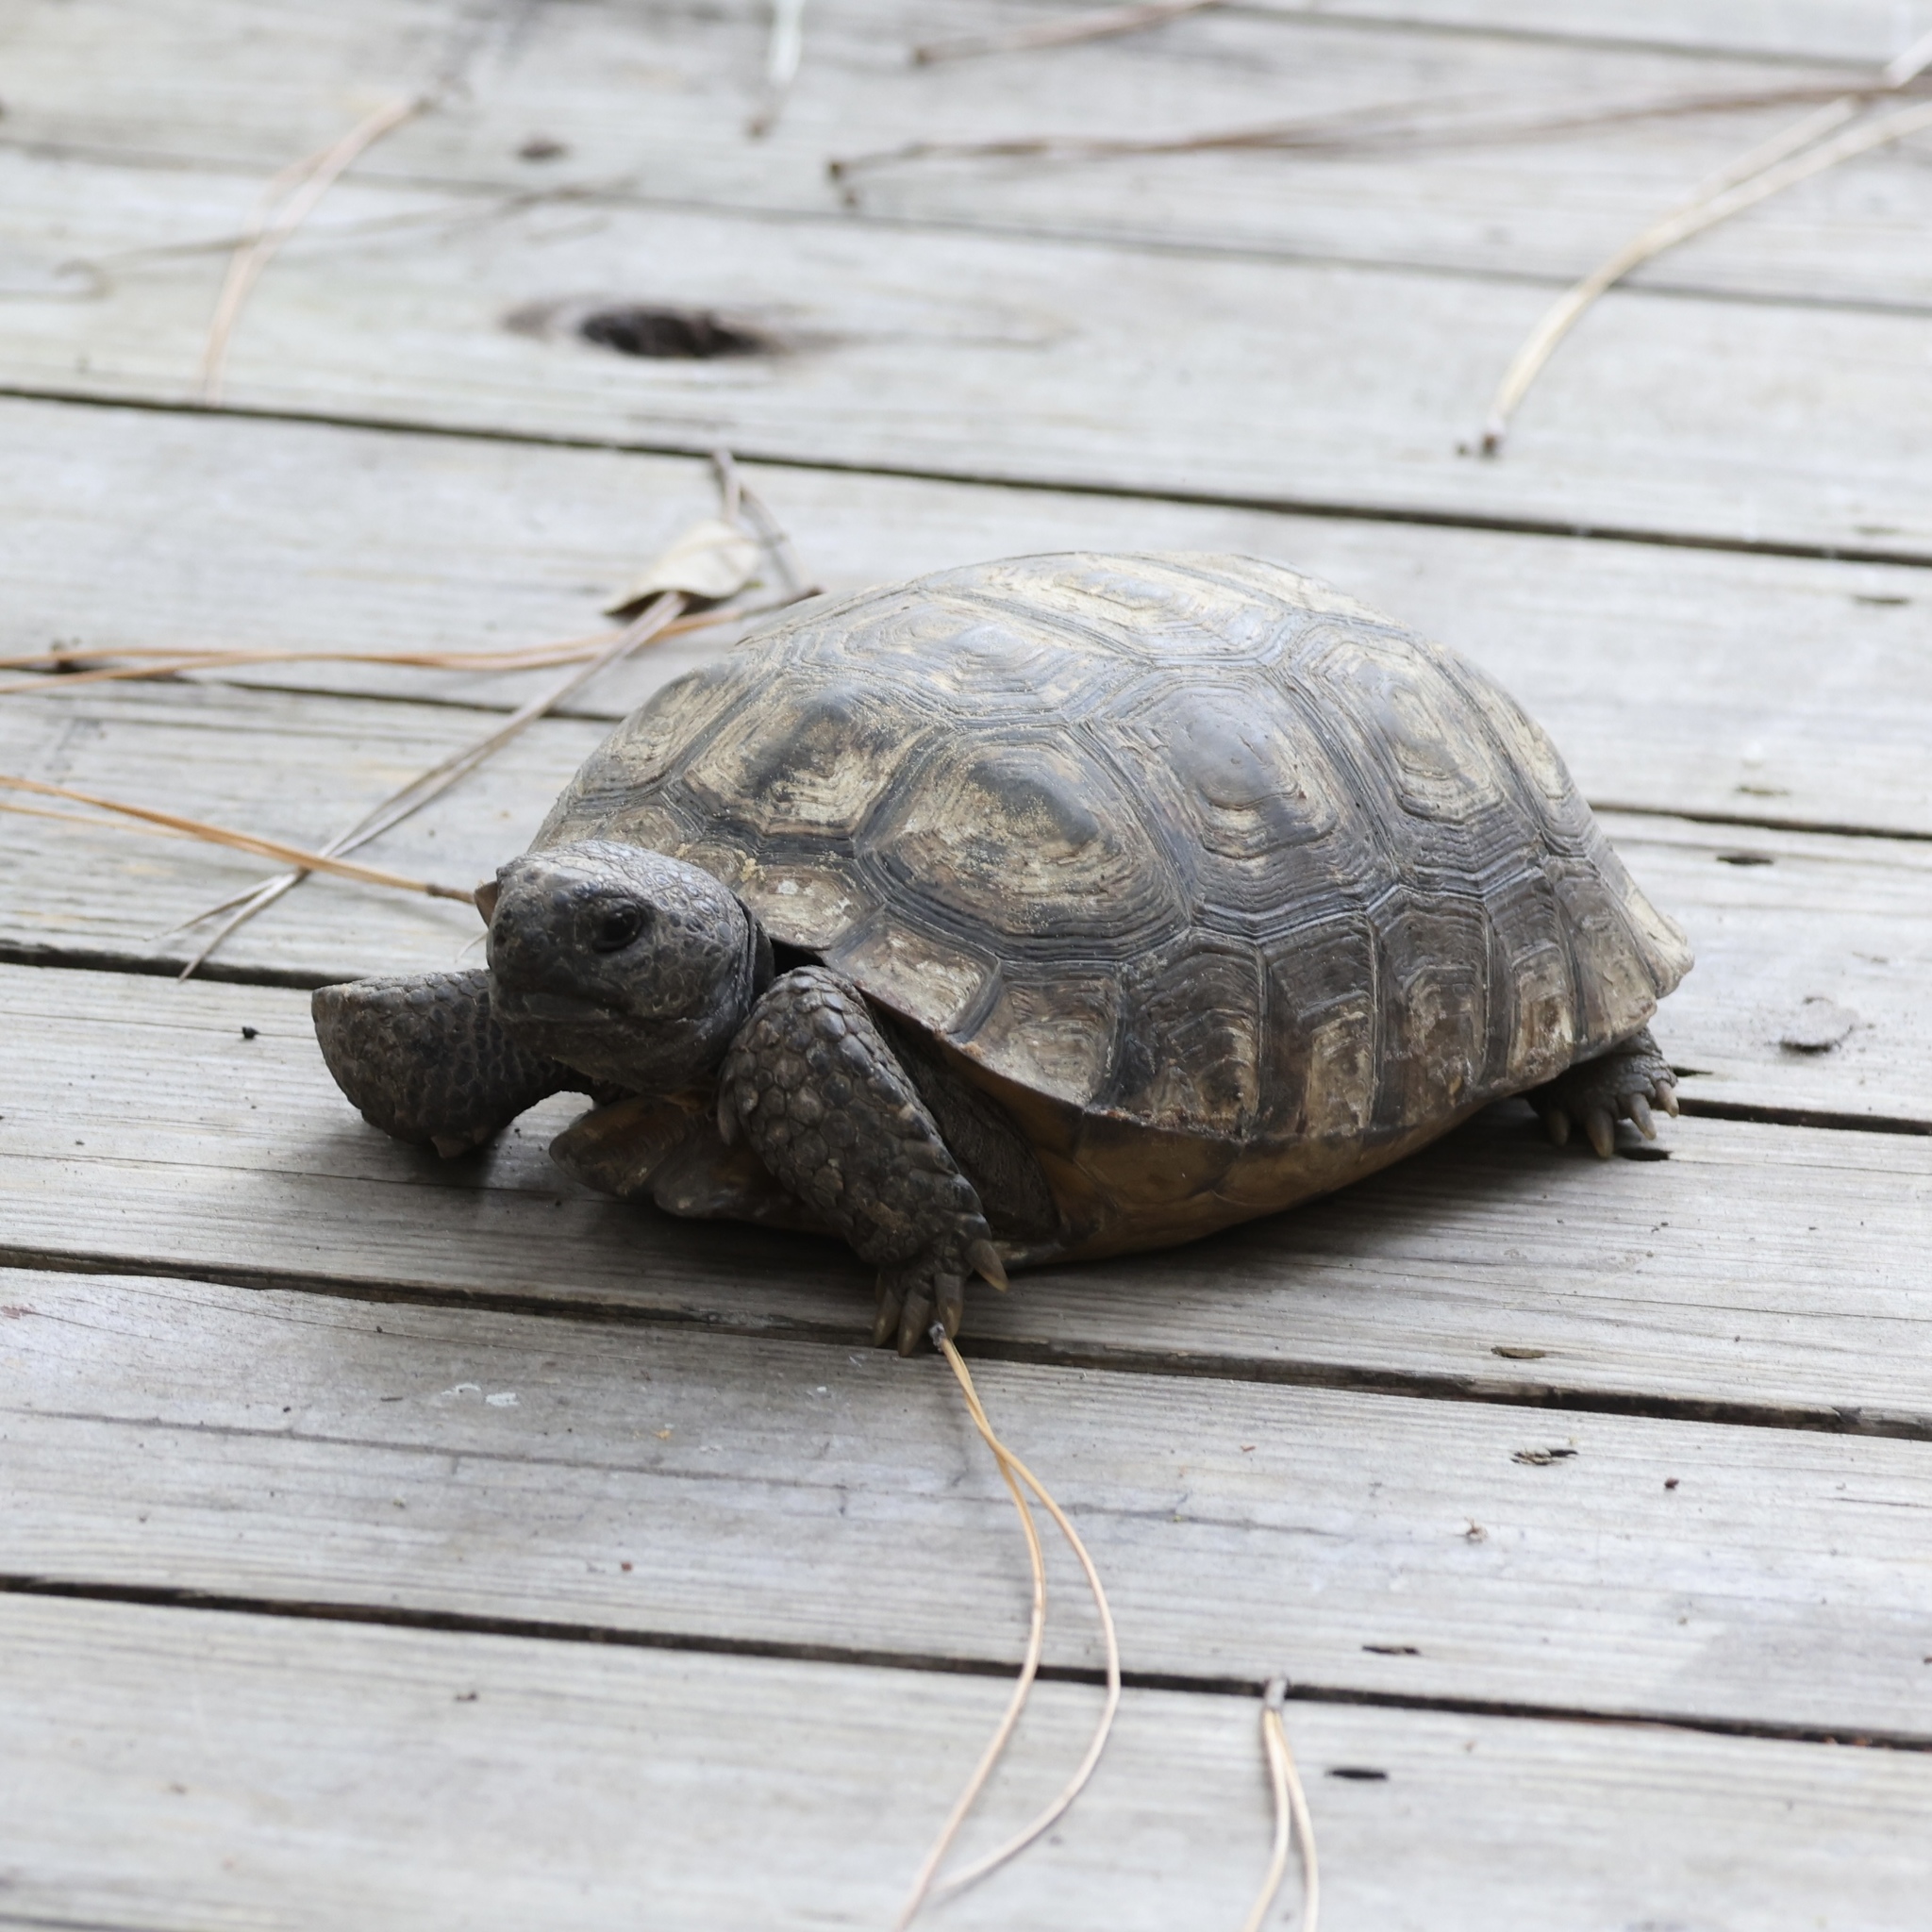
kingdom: Animalia
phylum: Chordata
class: Testudines
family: Testudinidae
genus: Gopherus
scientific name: Gopherus polyphemus
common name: Florida gopher tortoise
